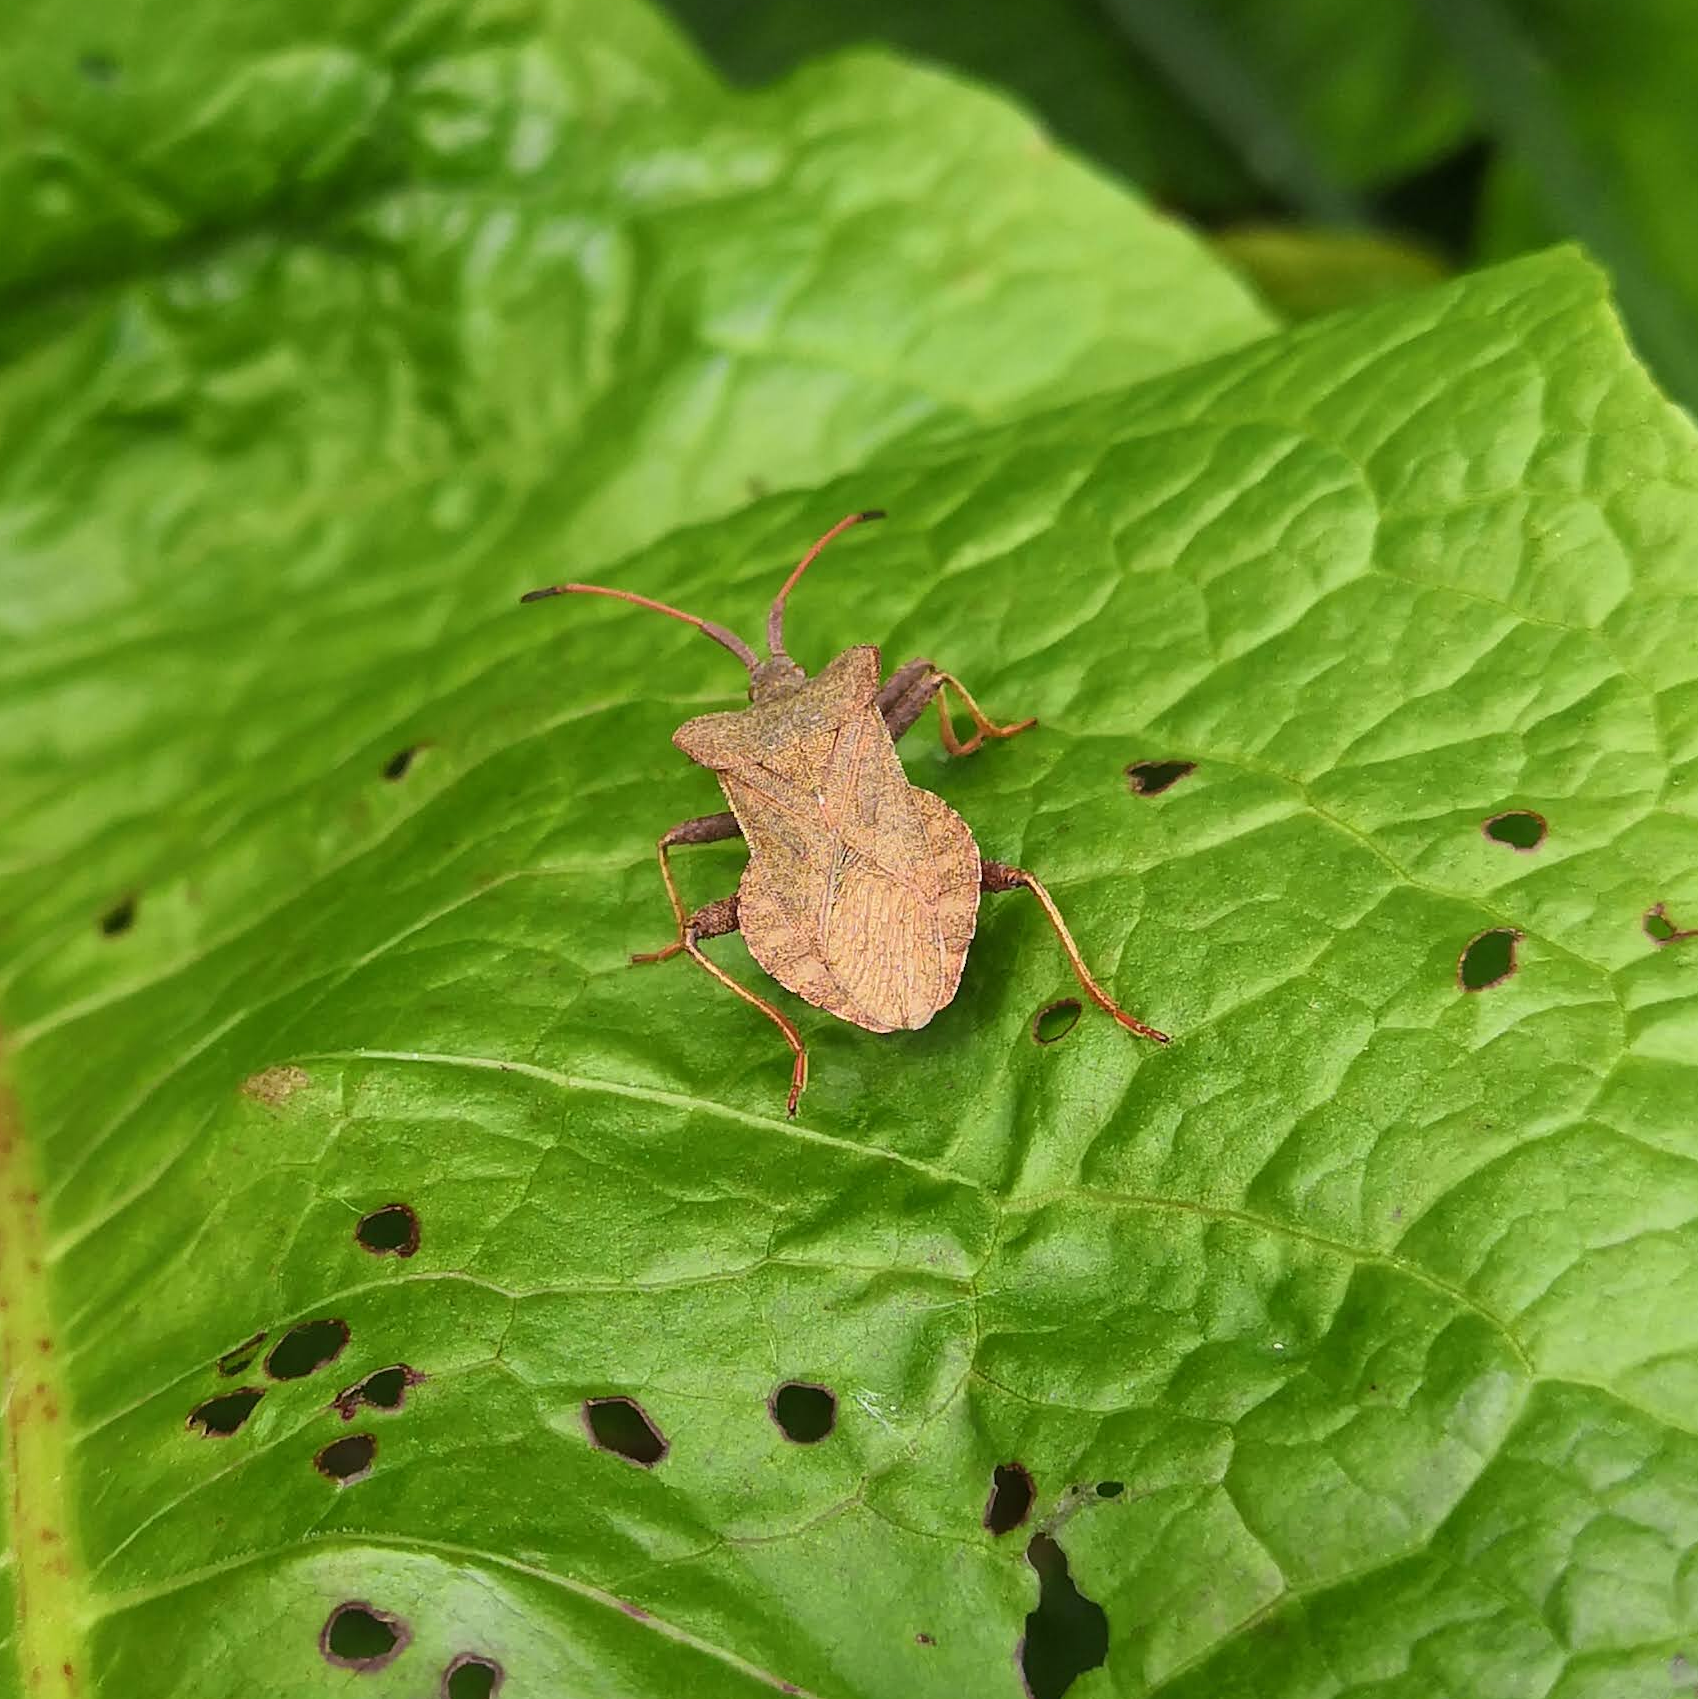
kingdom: Animalia
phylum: Arthropoda
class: Insecta
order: Hemiptera
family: Coreidae
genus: Coreus
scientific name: Coreus marginatus
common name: Dock bug
